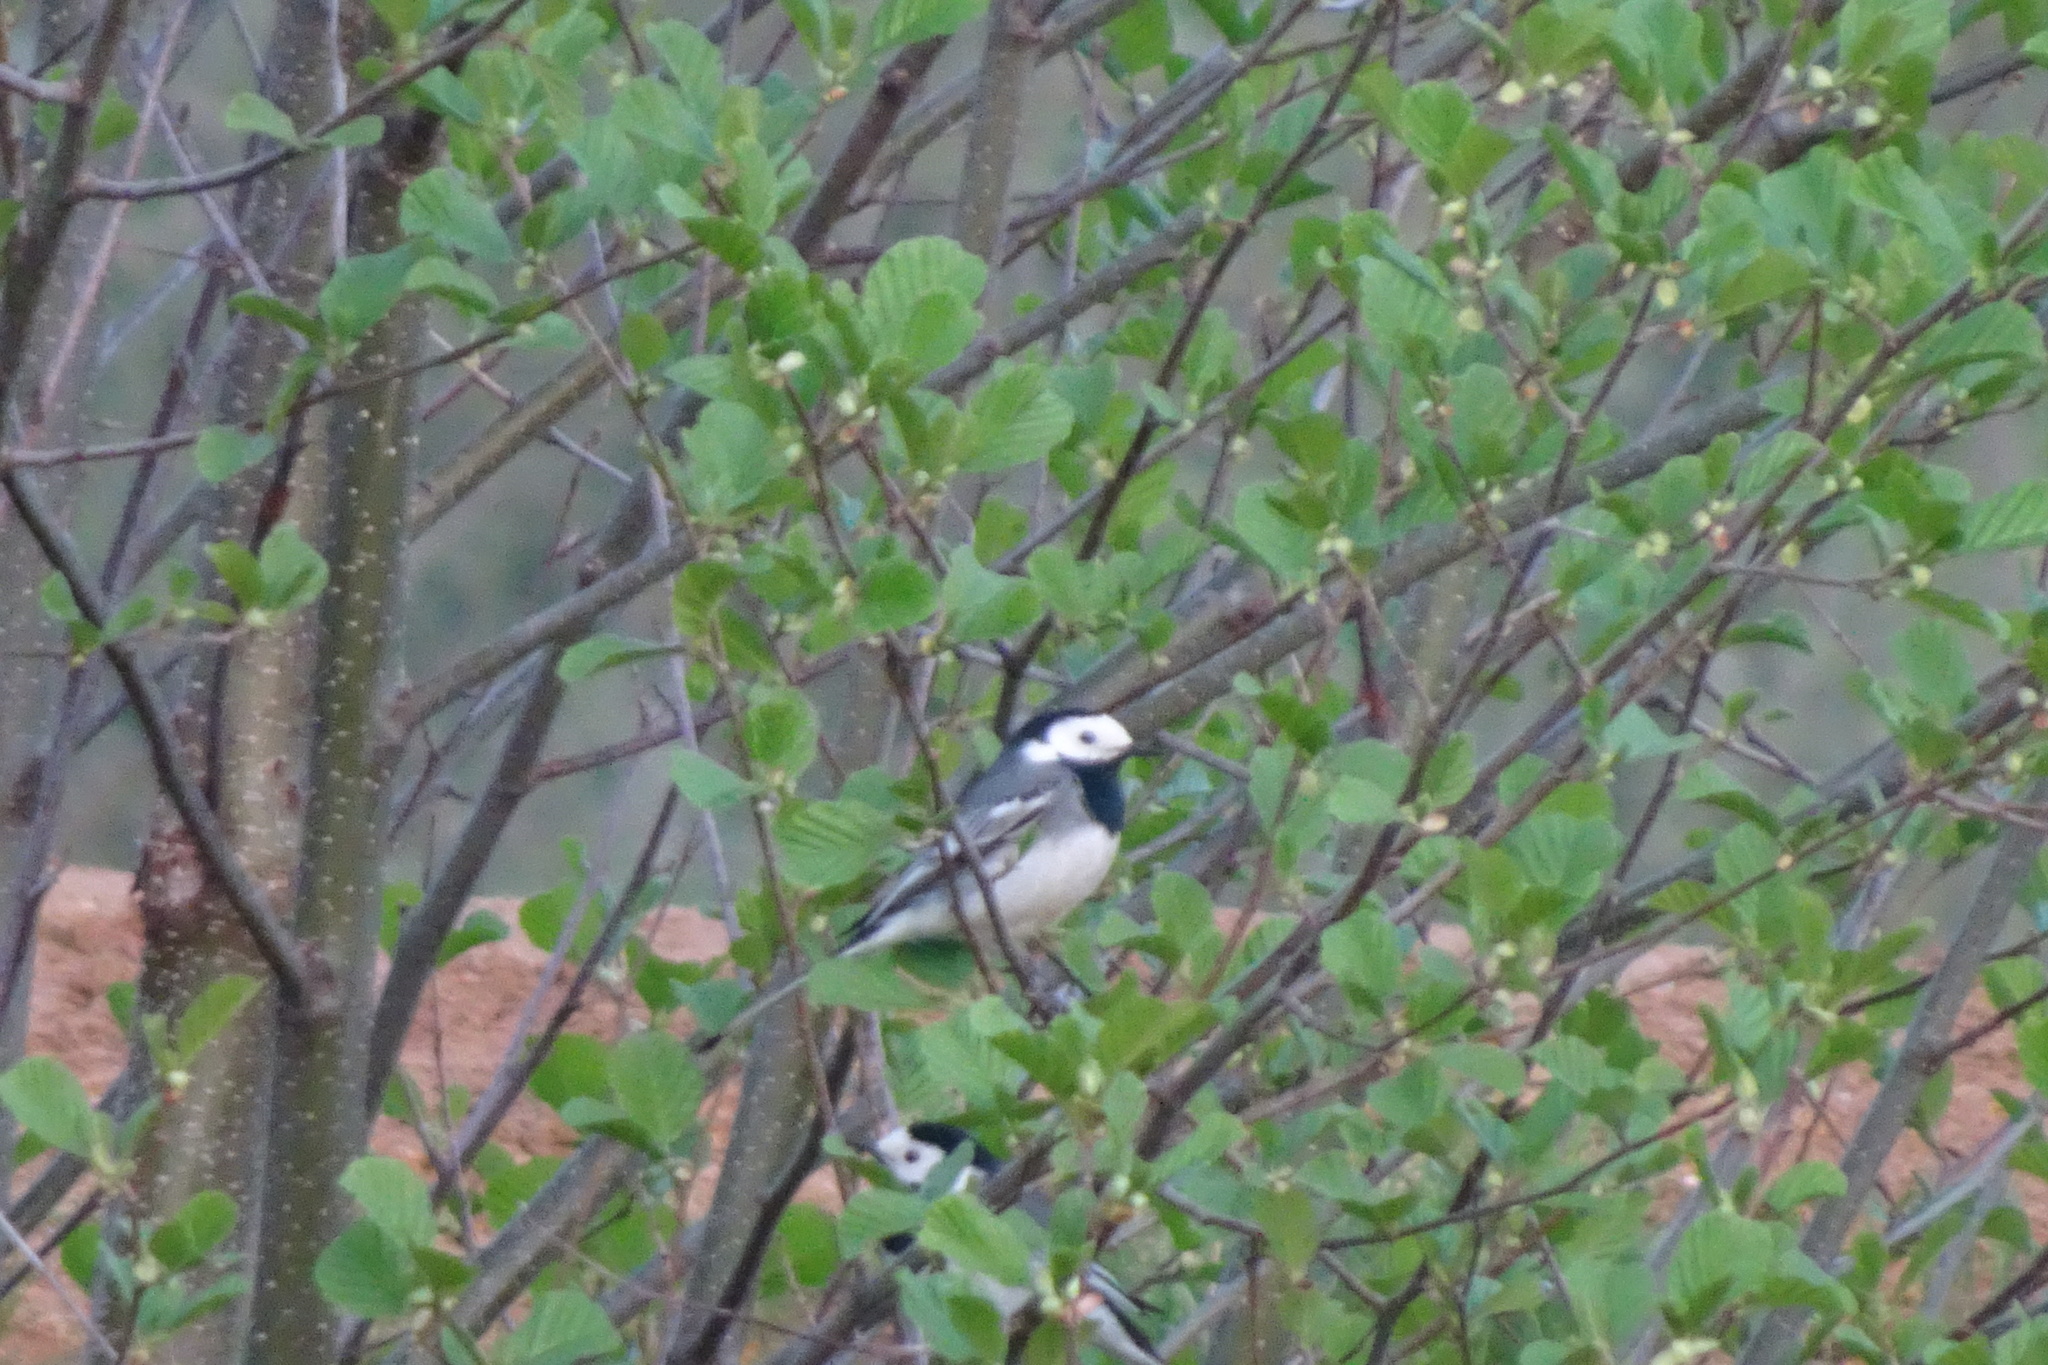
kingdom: Animalia
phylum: Chordata
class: Aves
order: Passeriformes
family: Motacillidae
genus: Motacilla
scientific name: Motacilla alba
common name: White wagtail
